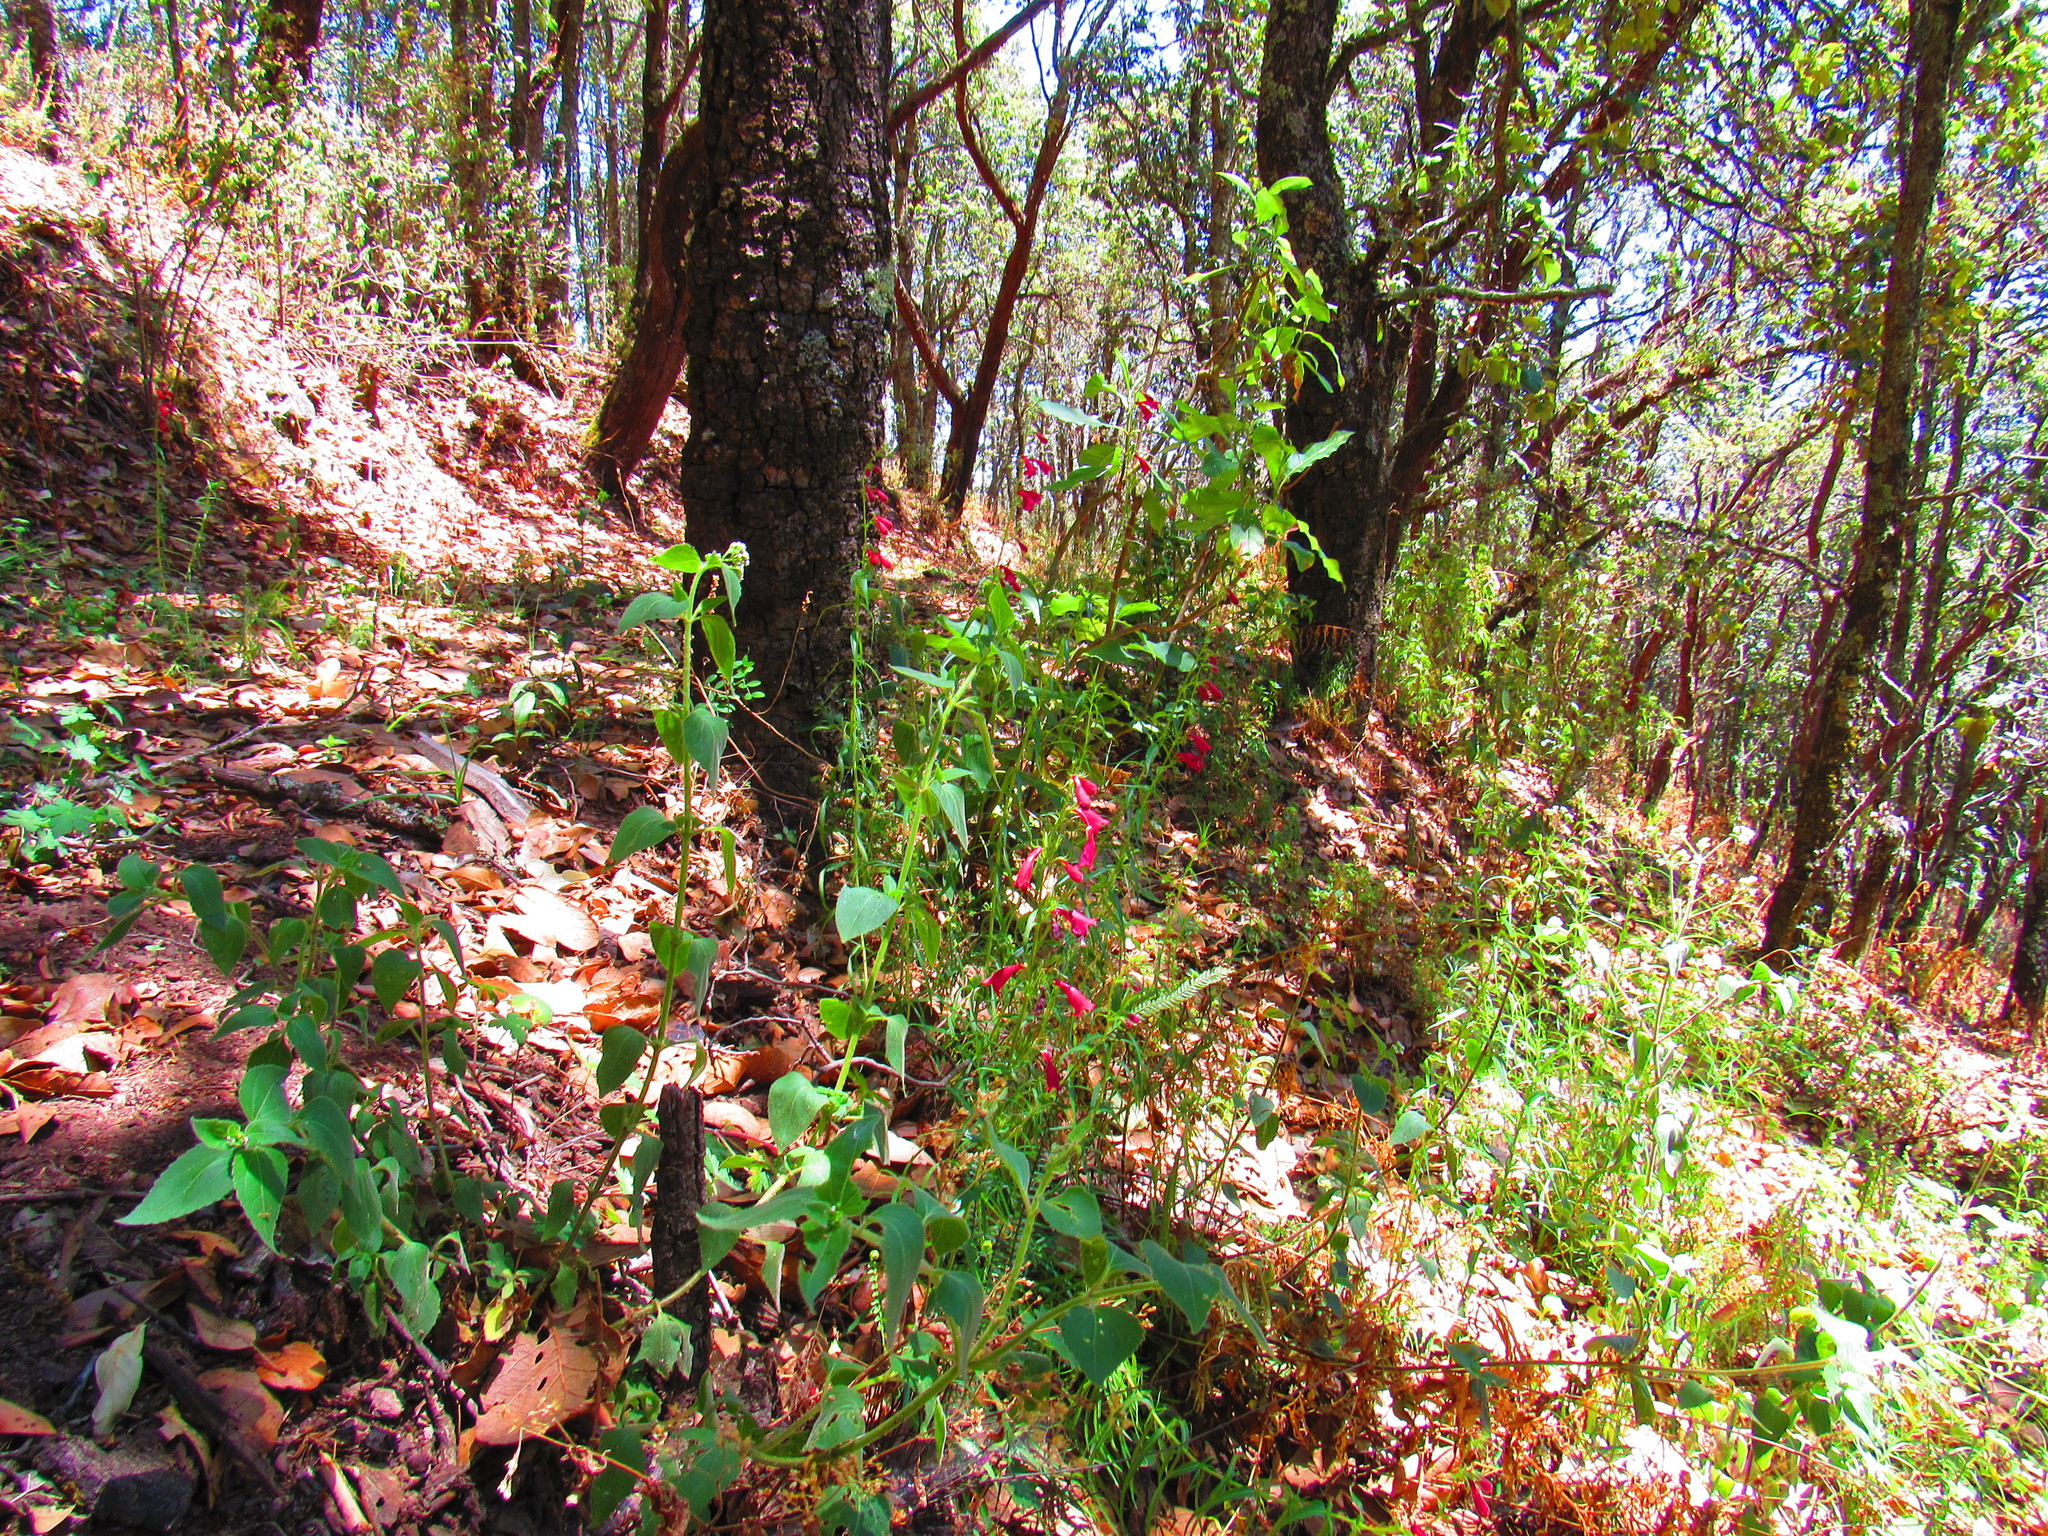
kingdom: Plantae
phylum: Tracheophyta
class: Magnoliopsida
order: Lamiales
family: Plantaginaceae
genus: Penstemon
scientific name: Penstemon roseus
